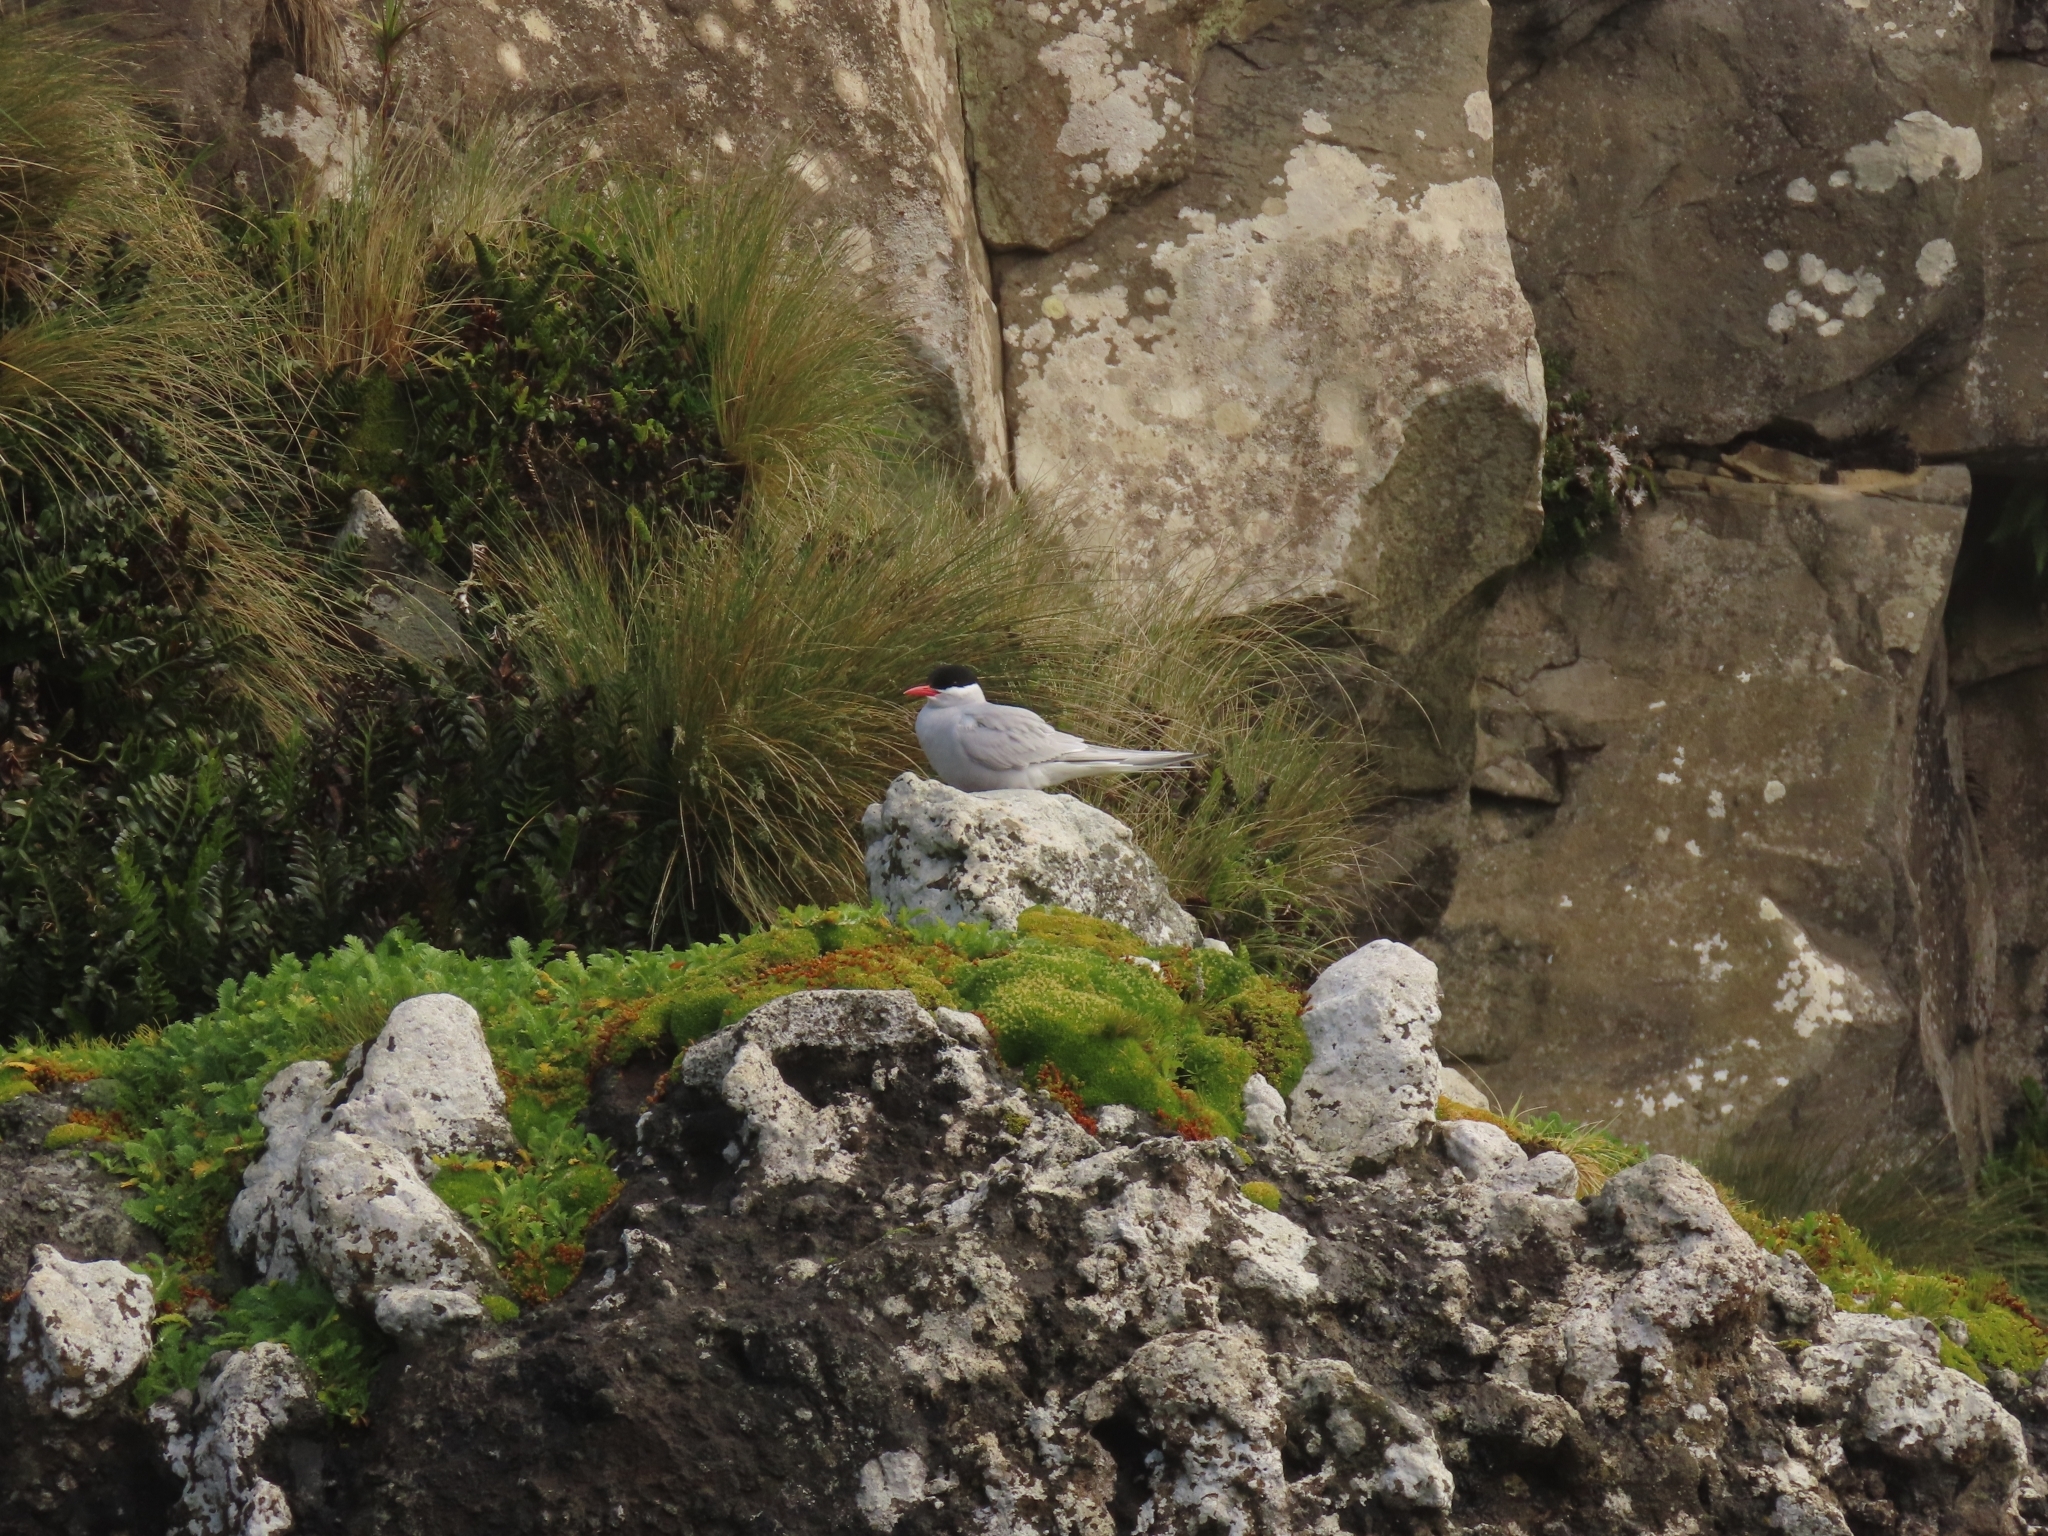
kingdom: Animalia
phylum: Chordata
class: Aves
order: Charadriiformes
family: Laridae
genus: Sterna
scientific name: Sterna vittata
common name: Antarctic tern
